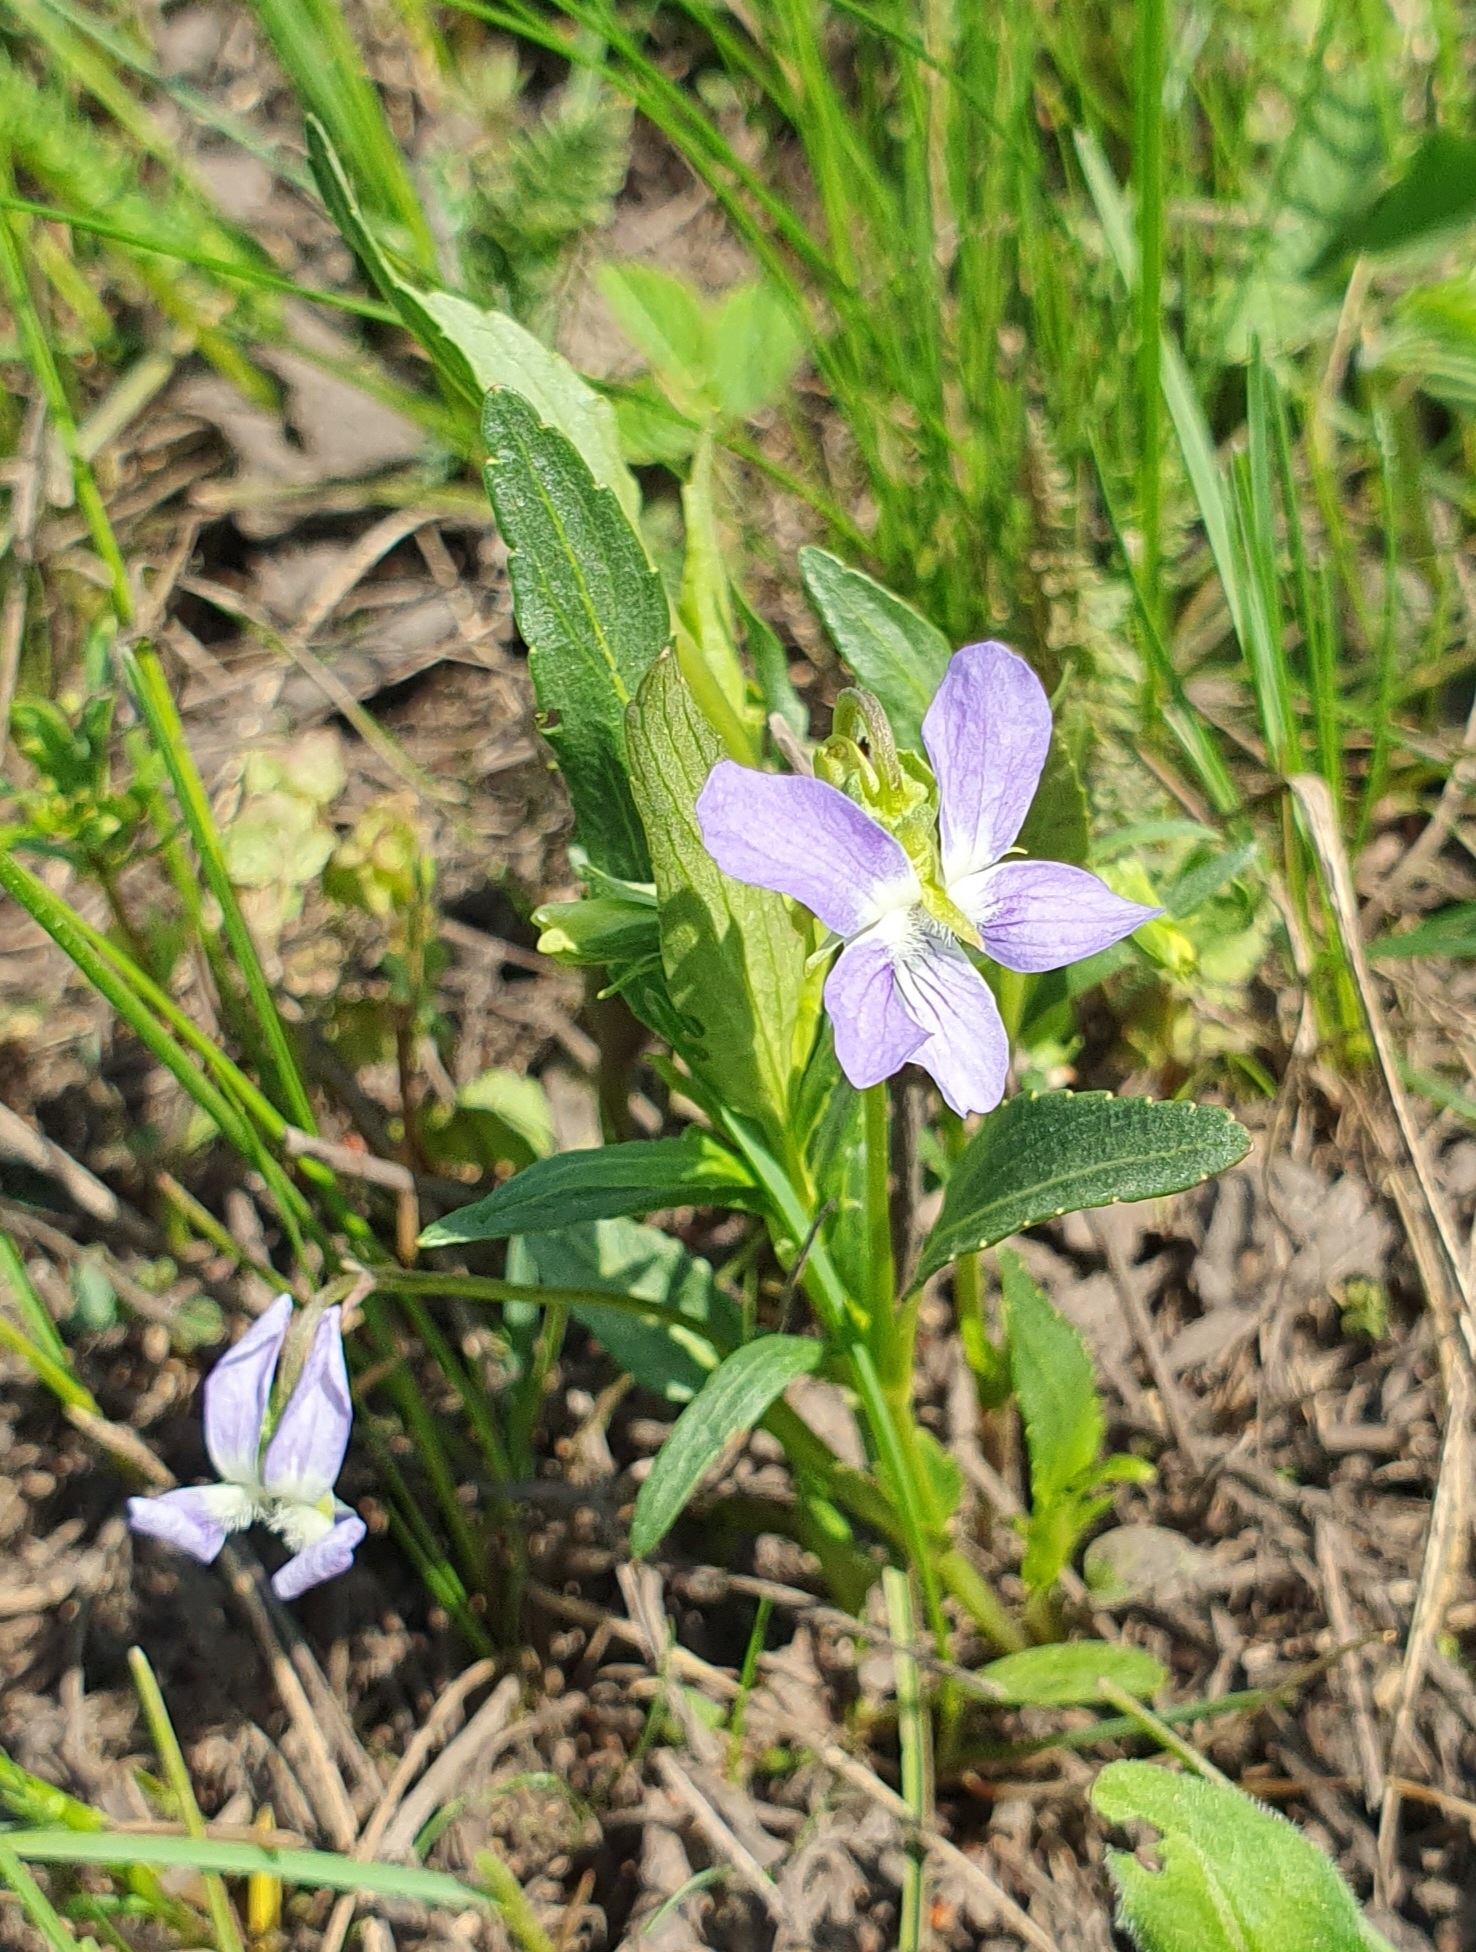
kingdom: Plantae
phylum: Tracheophyta
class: Magnoliopsida
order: Malpighiales
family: Violaceae
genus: Viola
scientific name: Viola pumila
